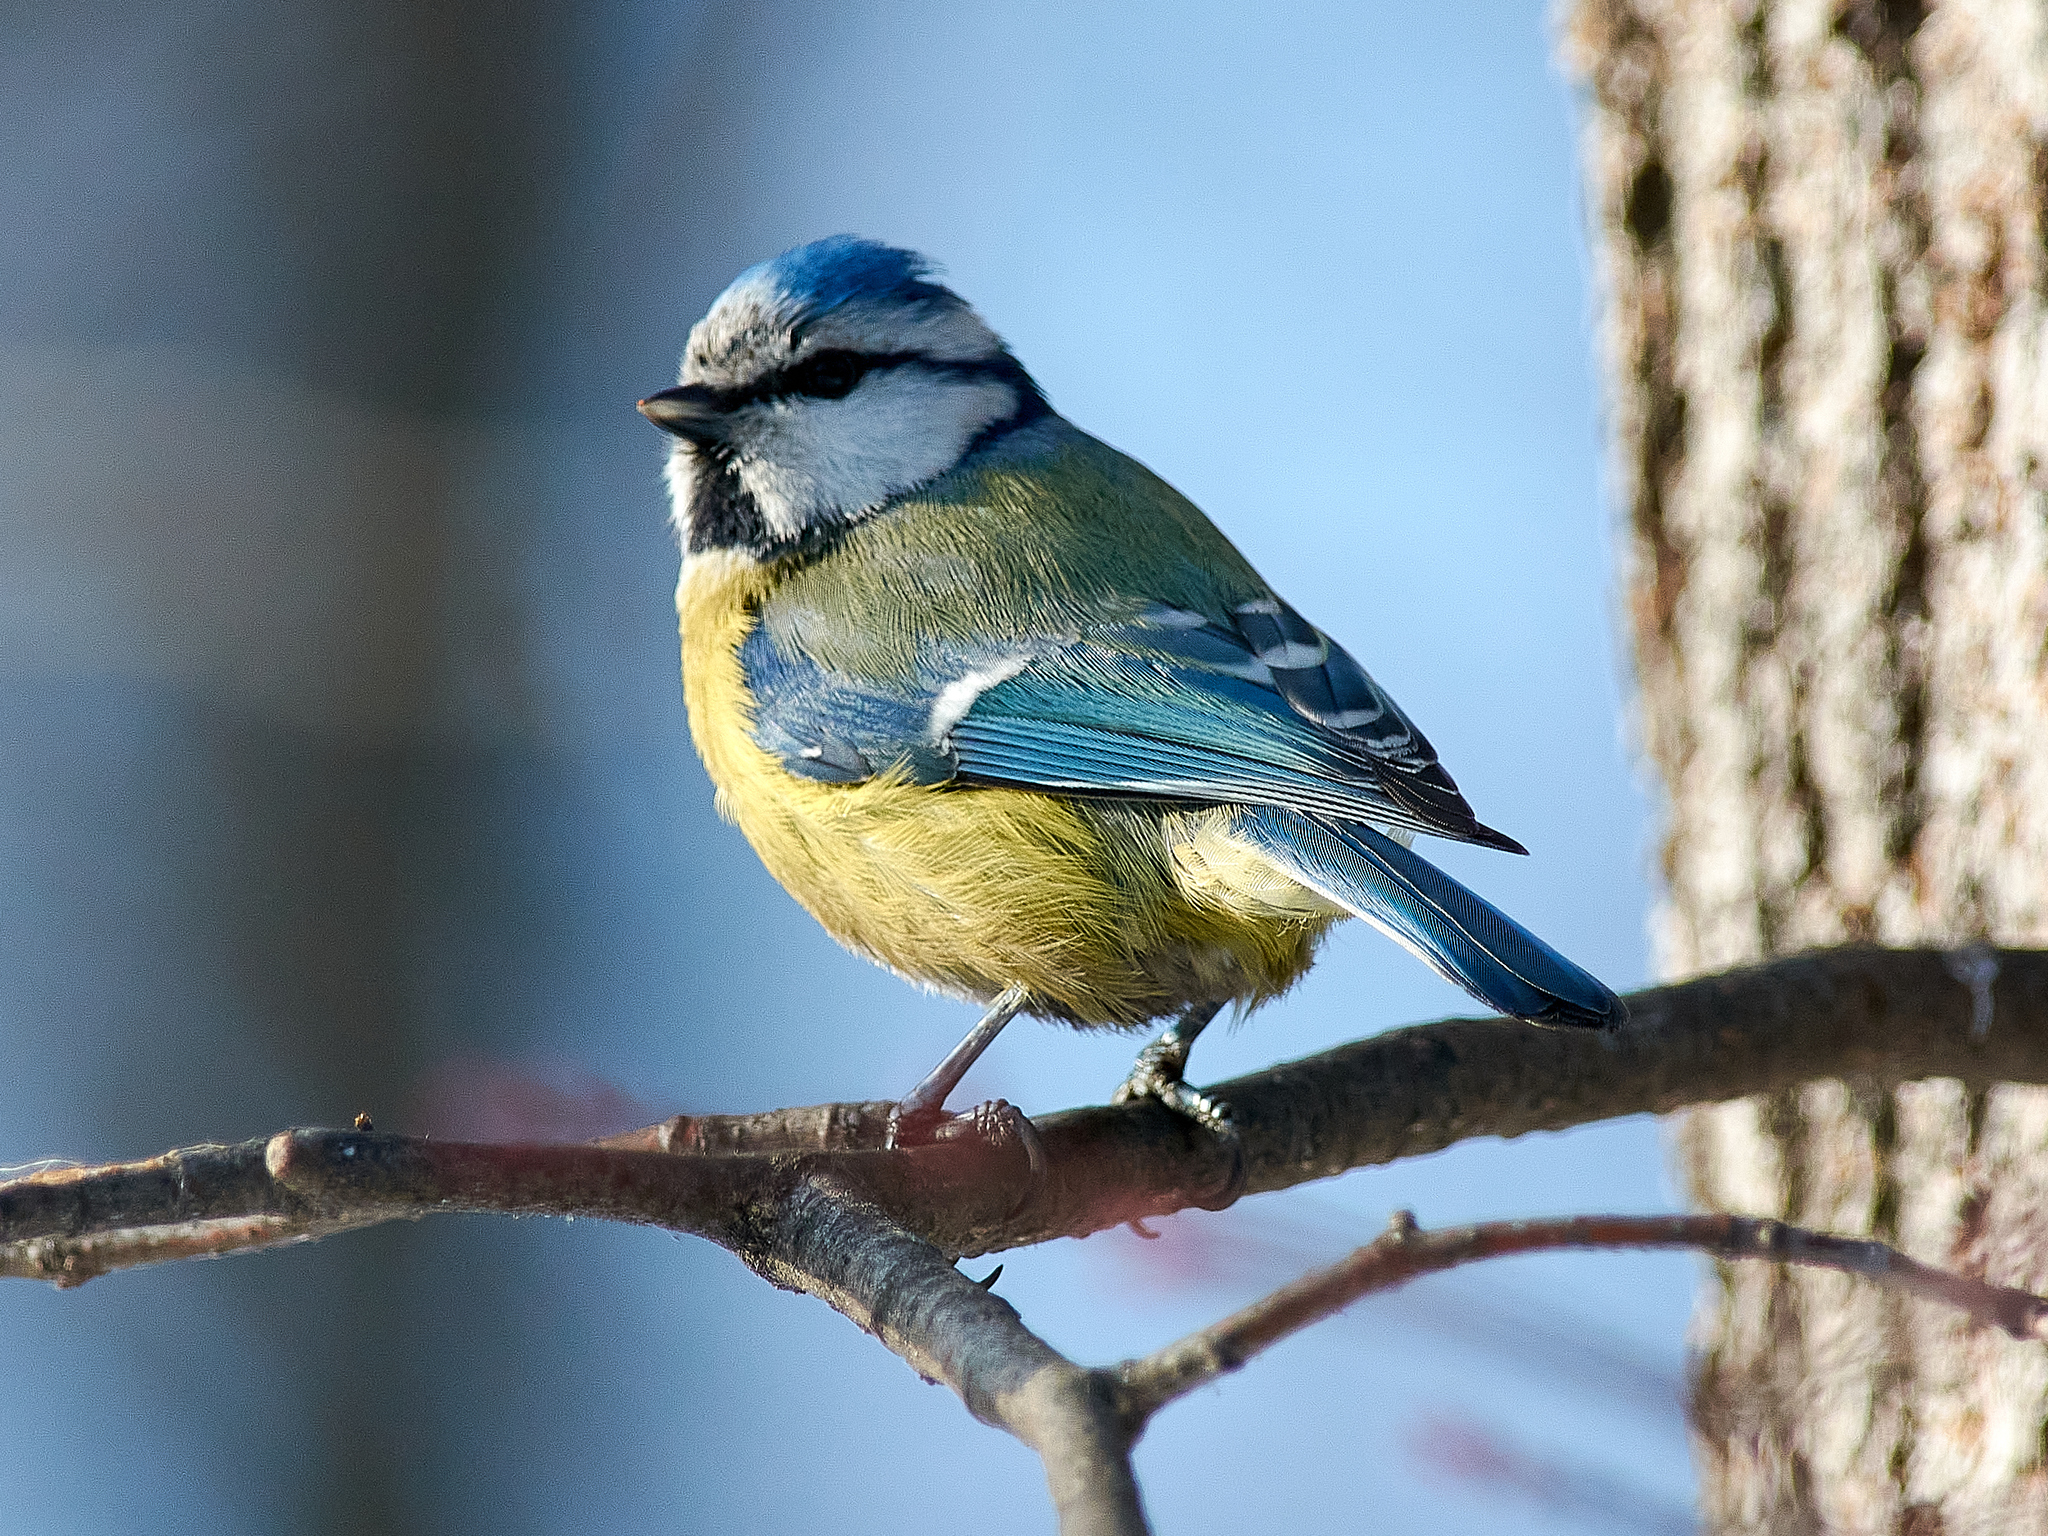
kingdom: Animalia
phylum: Chordata
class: Aves
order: Passeriformes
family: Paridae
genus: Cyanistes
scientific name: Cyanistes caeruleus
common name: Eurasian blue tit
